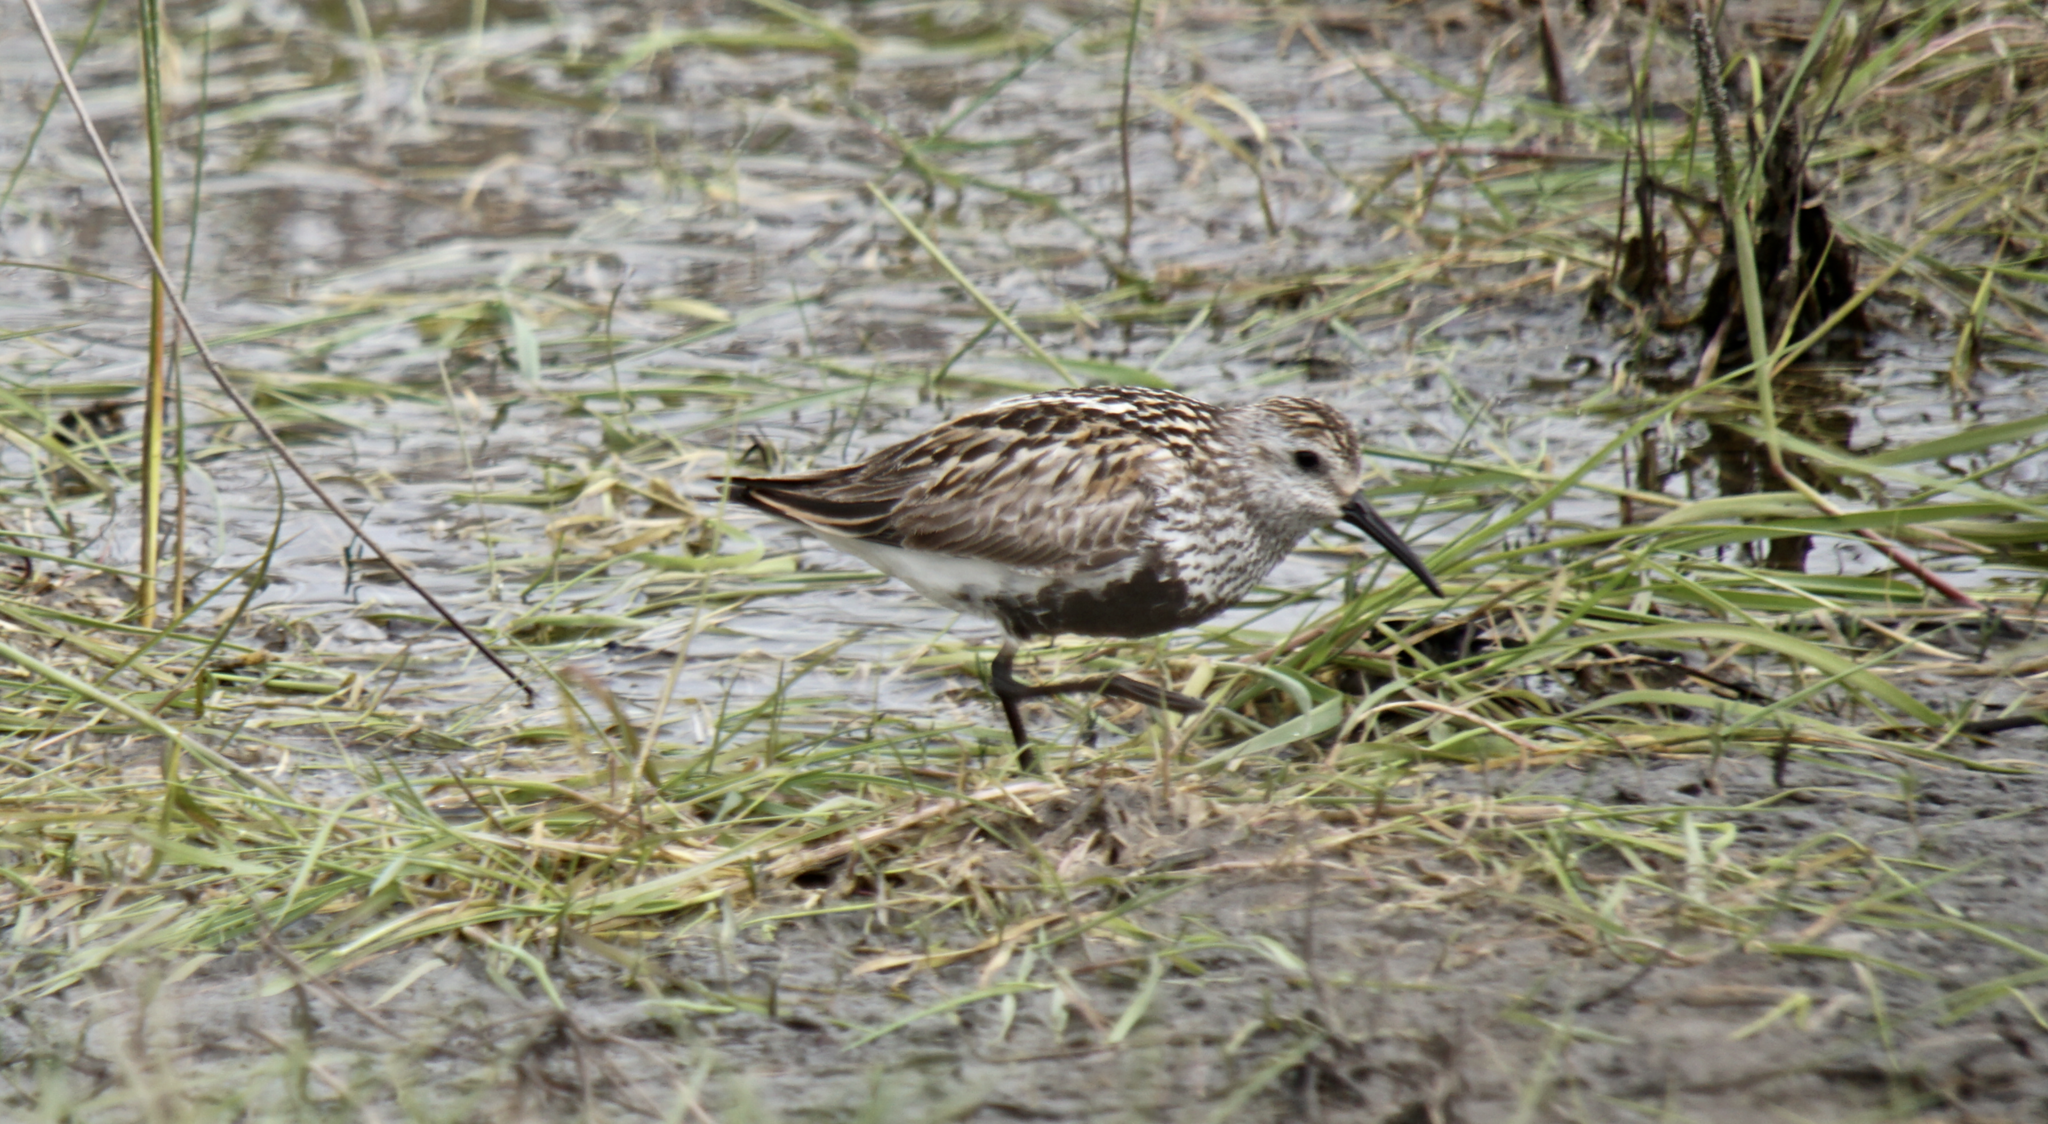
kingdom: Animalia
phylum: Chordata
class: Aves
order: Charadriiformes
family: Scolopacidae
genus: Calidris
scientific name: Calidris alpina
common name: Dunlin
